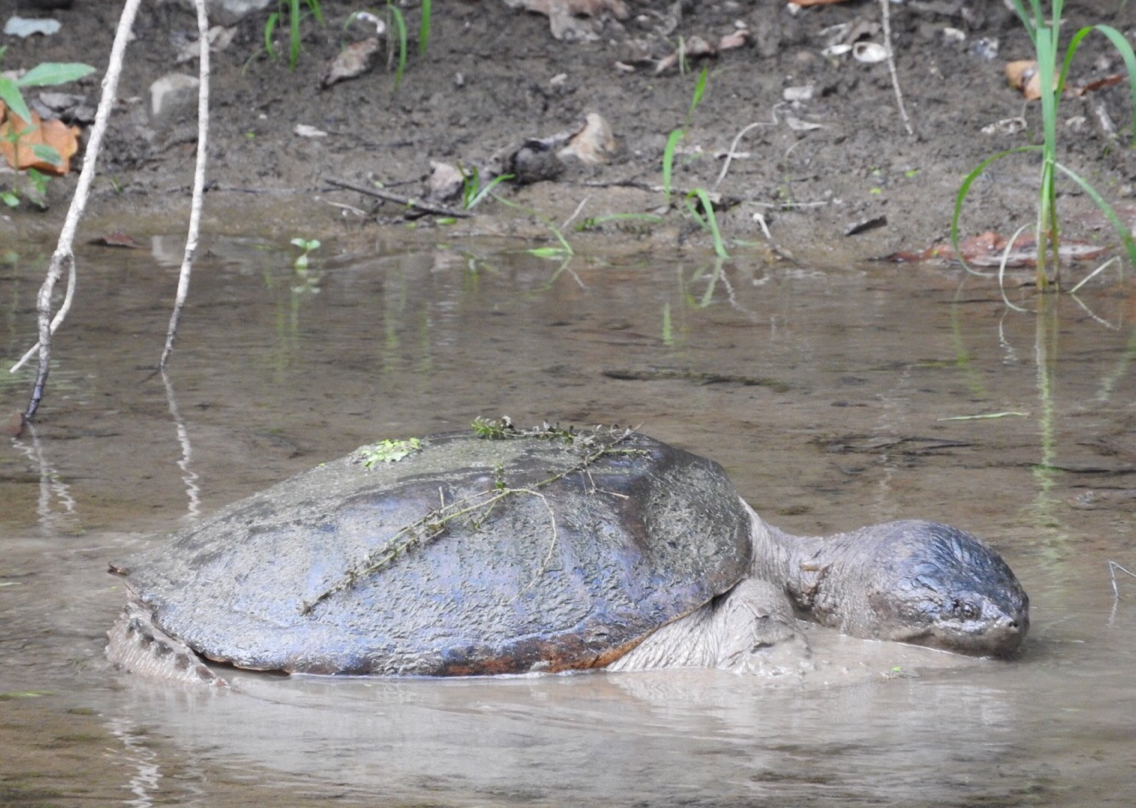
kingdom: Animalia
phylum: Chordata
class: Testudines
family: Chelydridae
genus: Chelydra
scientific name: Chelydra serpentina
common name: Common snapping turtle
